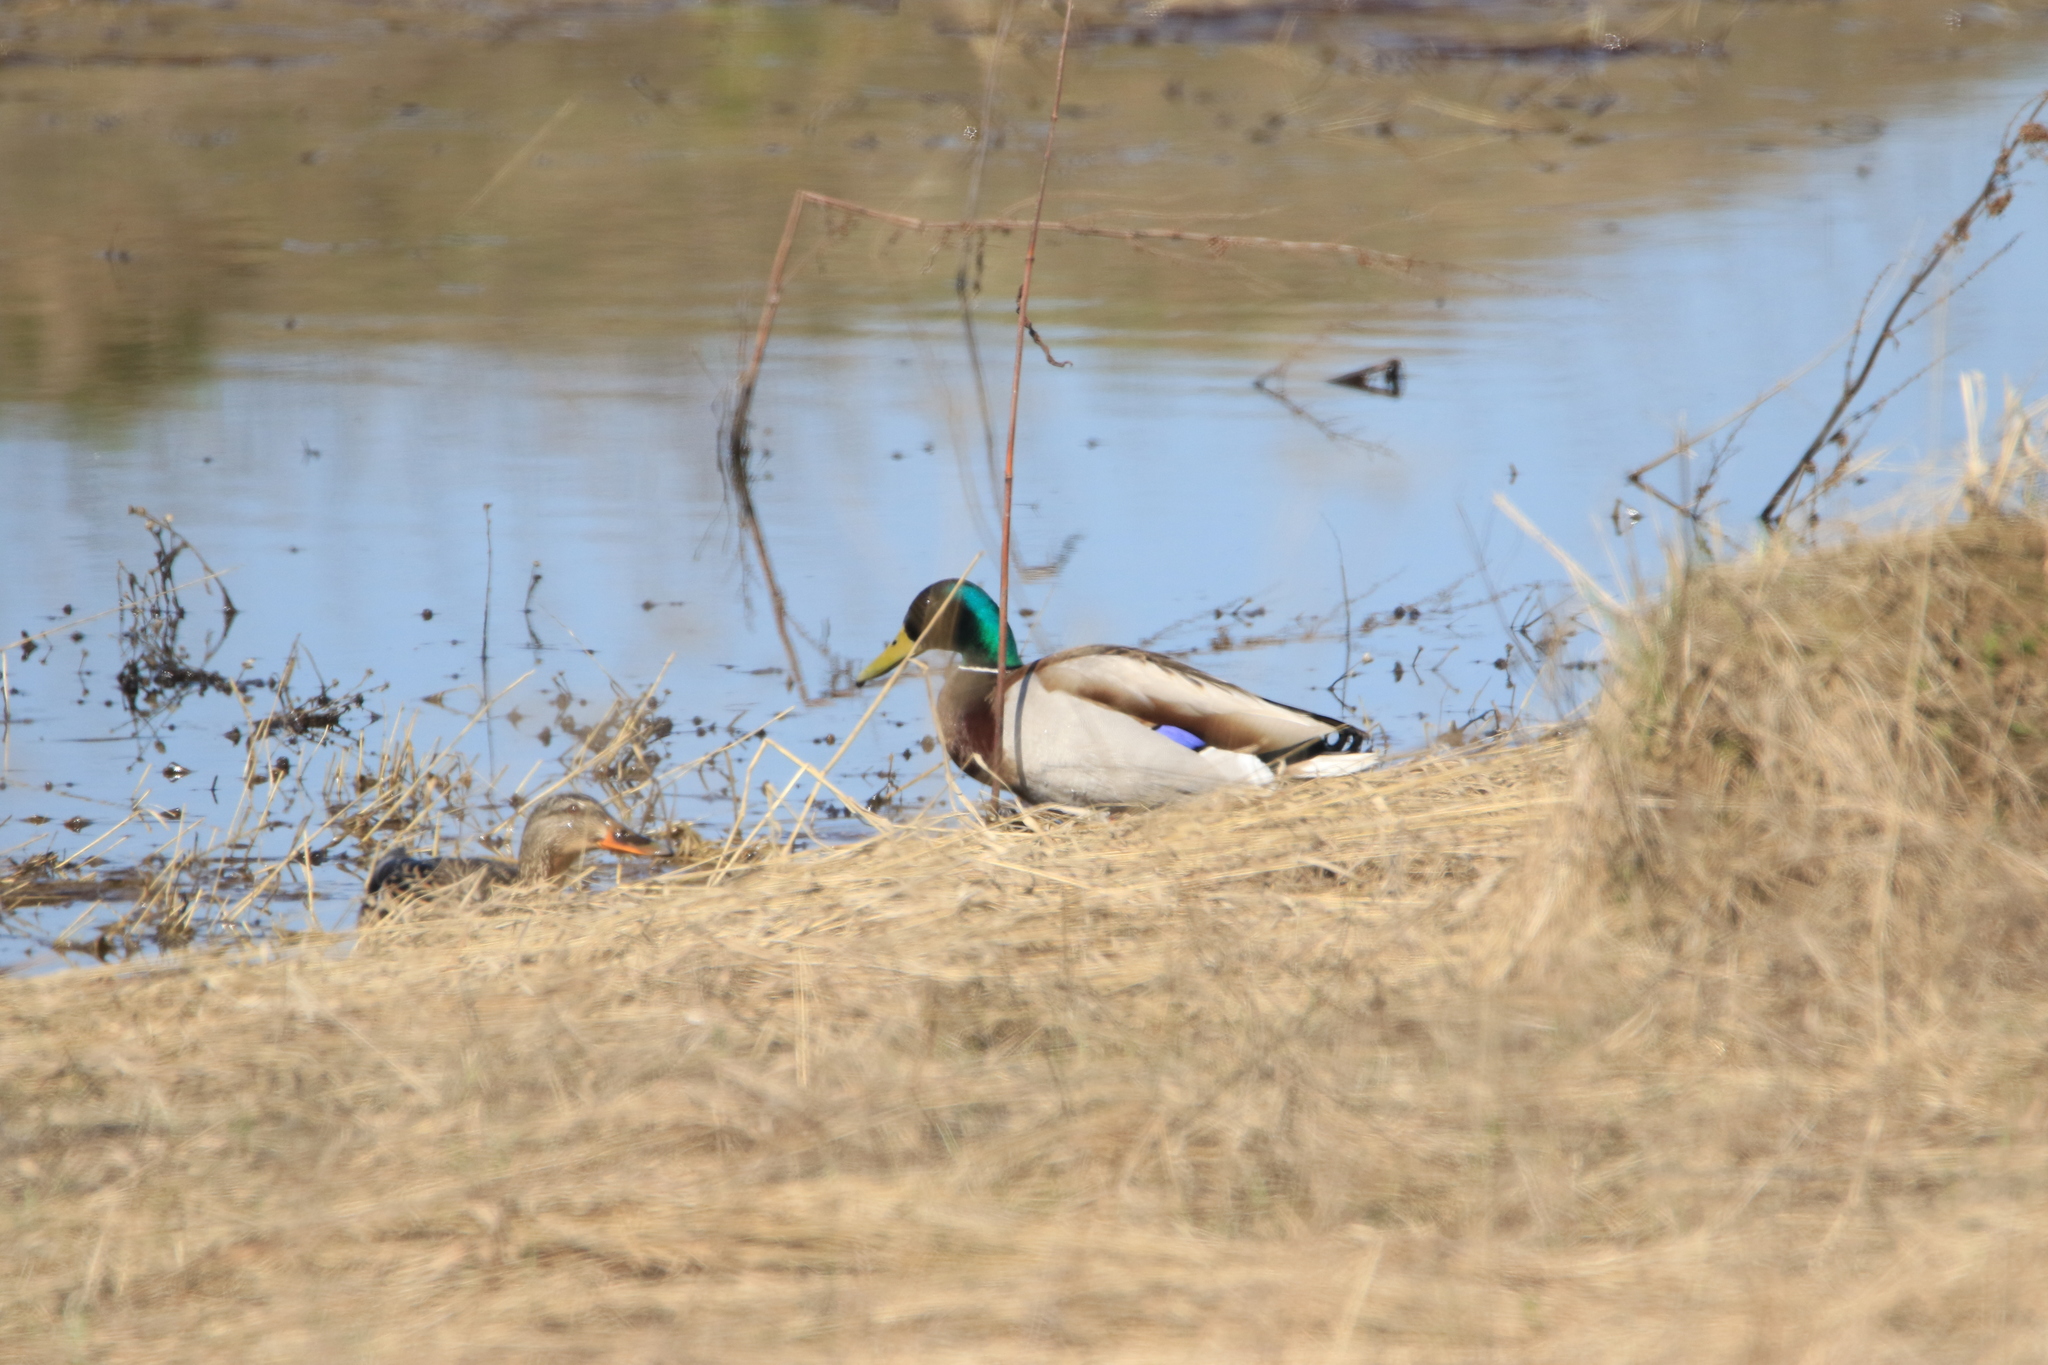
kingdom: Animalia
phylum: Chordata
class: Aves
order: Anseriformes
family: Anatidae
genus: Anas
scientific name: Anas platyrhynchos
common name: Mallard
